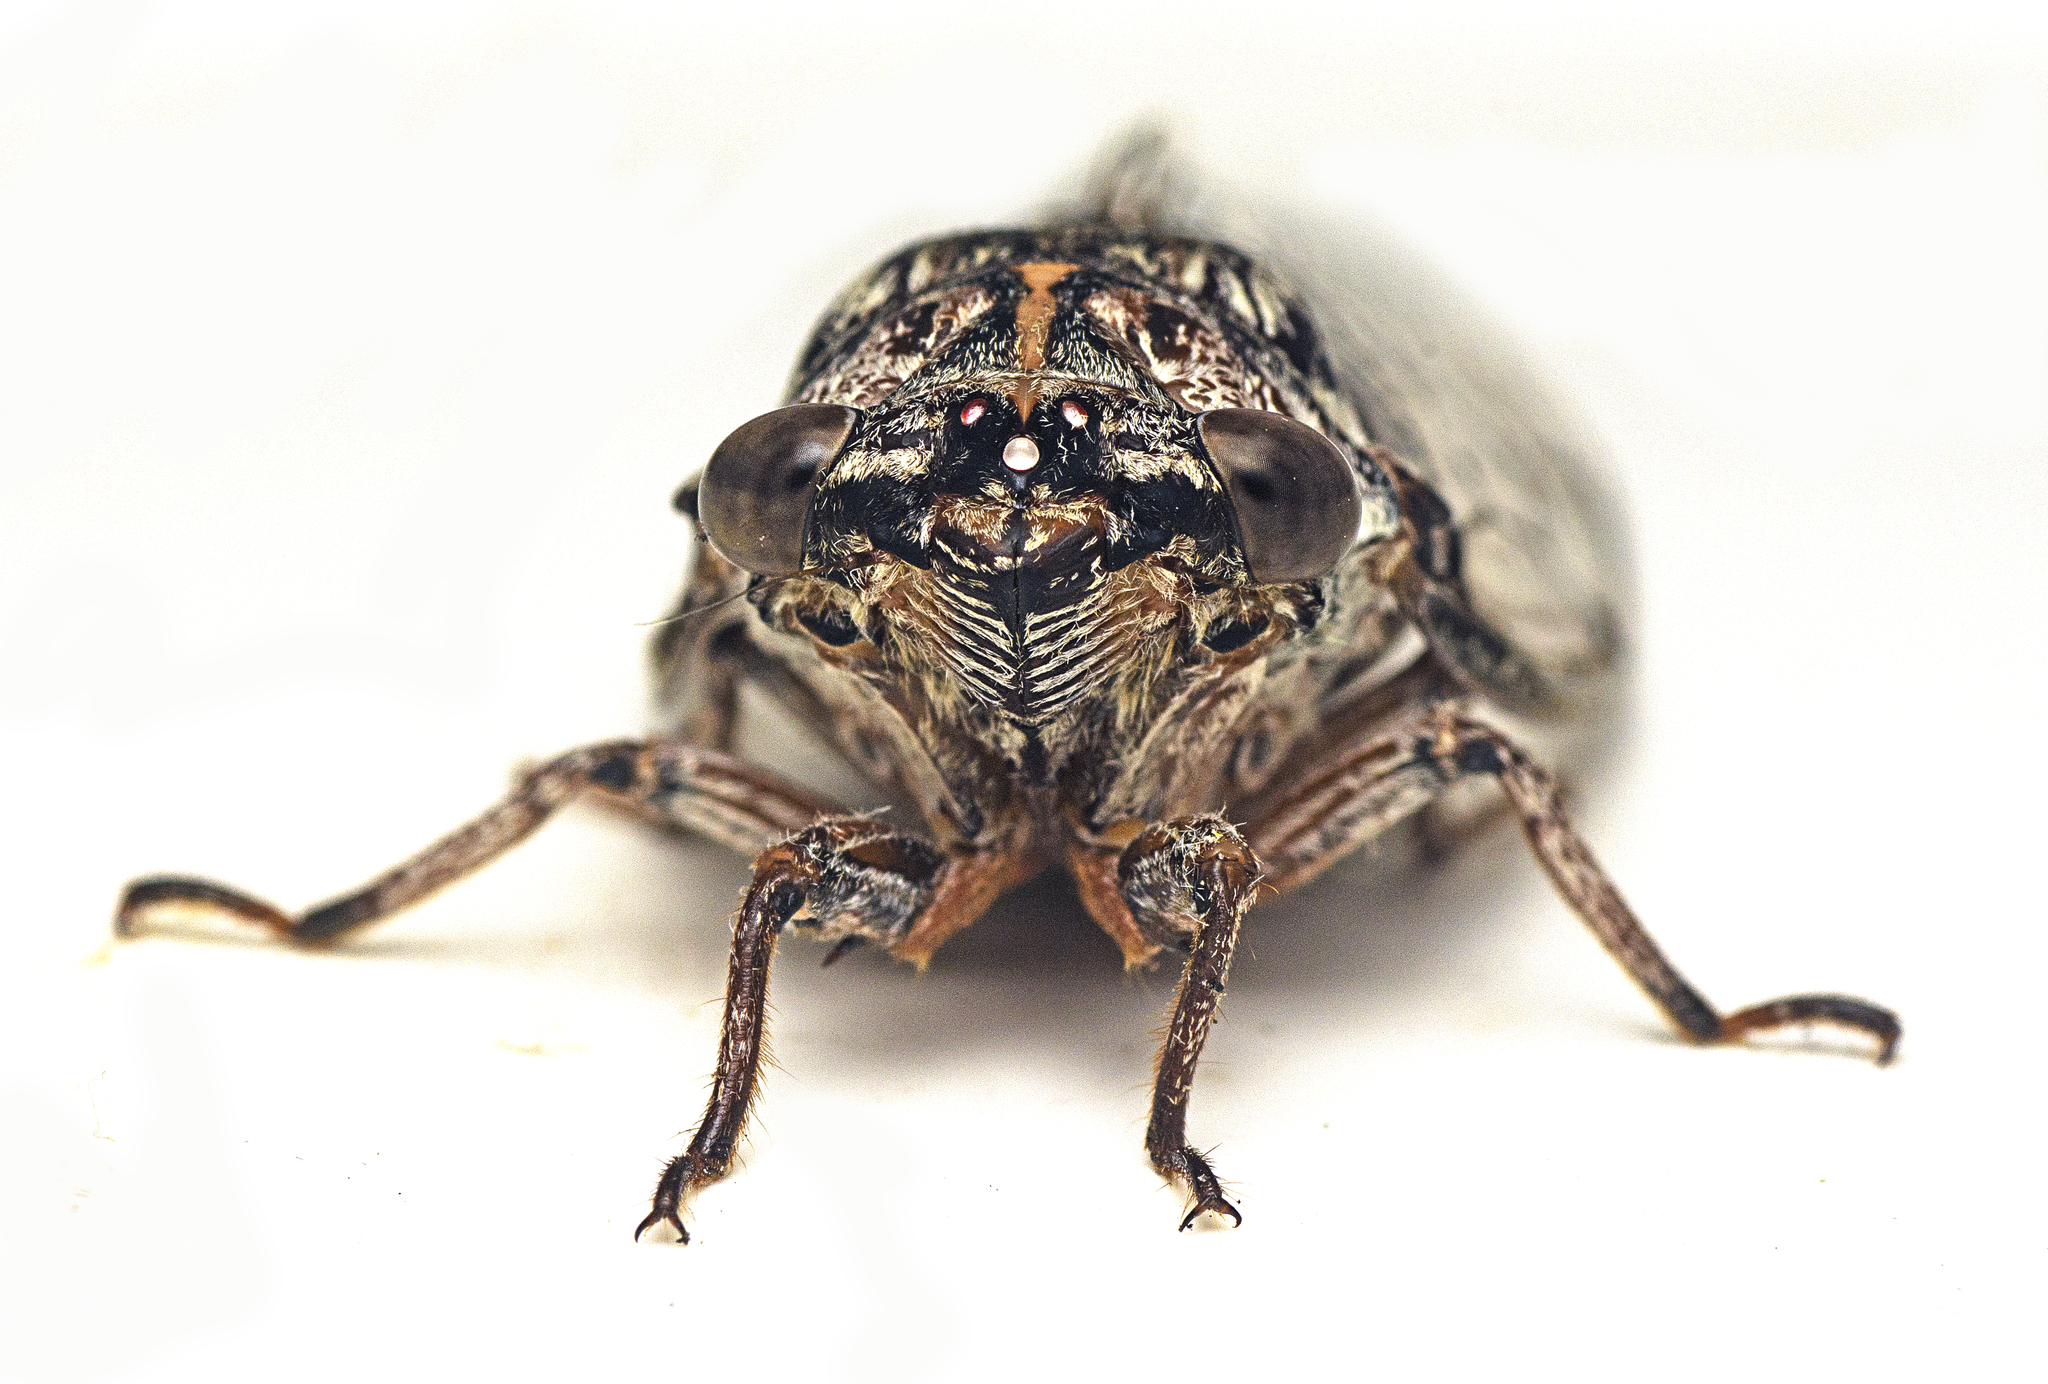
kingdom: Animalia
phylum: Arthropoda
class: Insecta
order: Hemiptera
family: Cicadidae
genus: Aleeta
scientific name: Aleeta curvicosta
